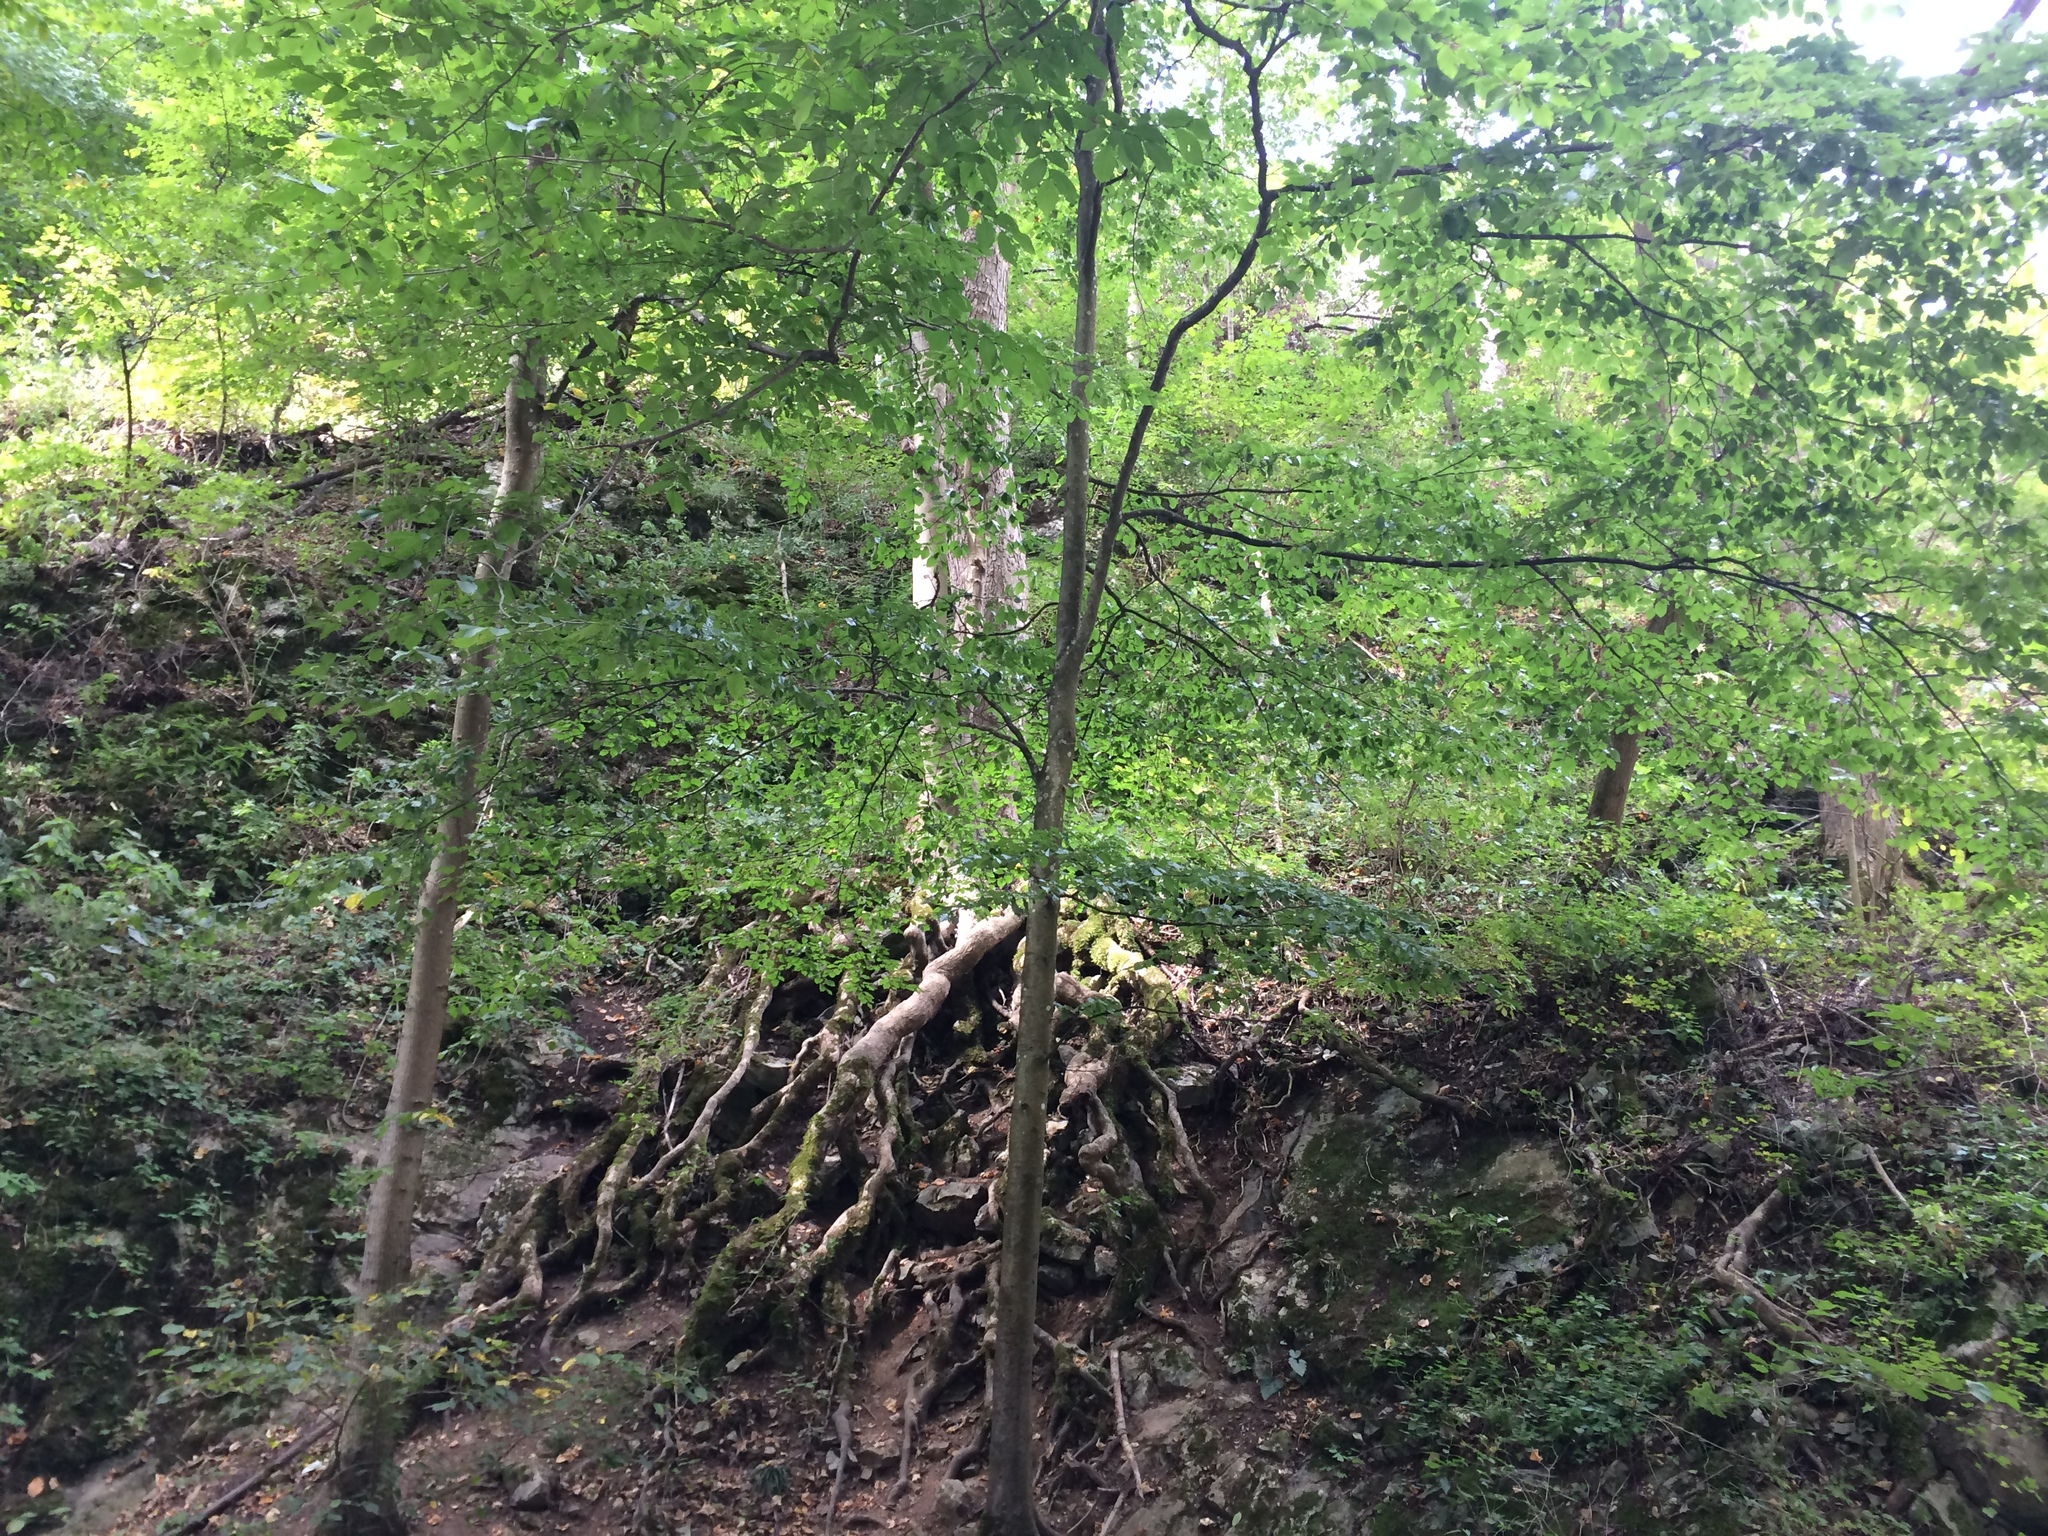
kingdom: Plantae
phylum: Tracheophyta
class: Magnoliopsida
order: Fagales
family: Fagaceae
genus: Fagus
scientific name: Fagus sylvatica
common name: Beech
